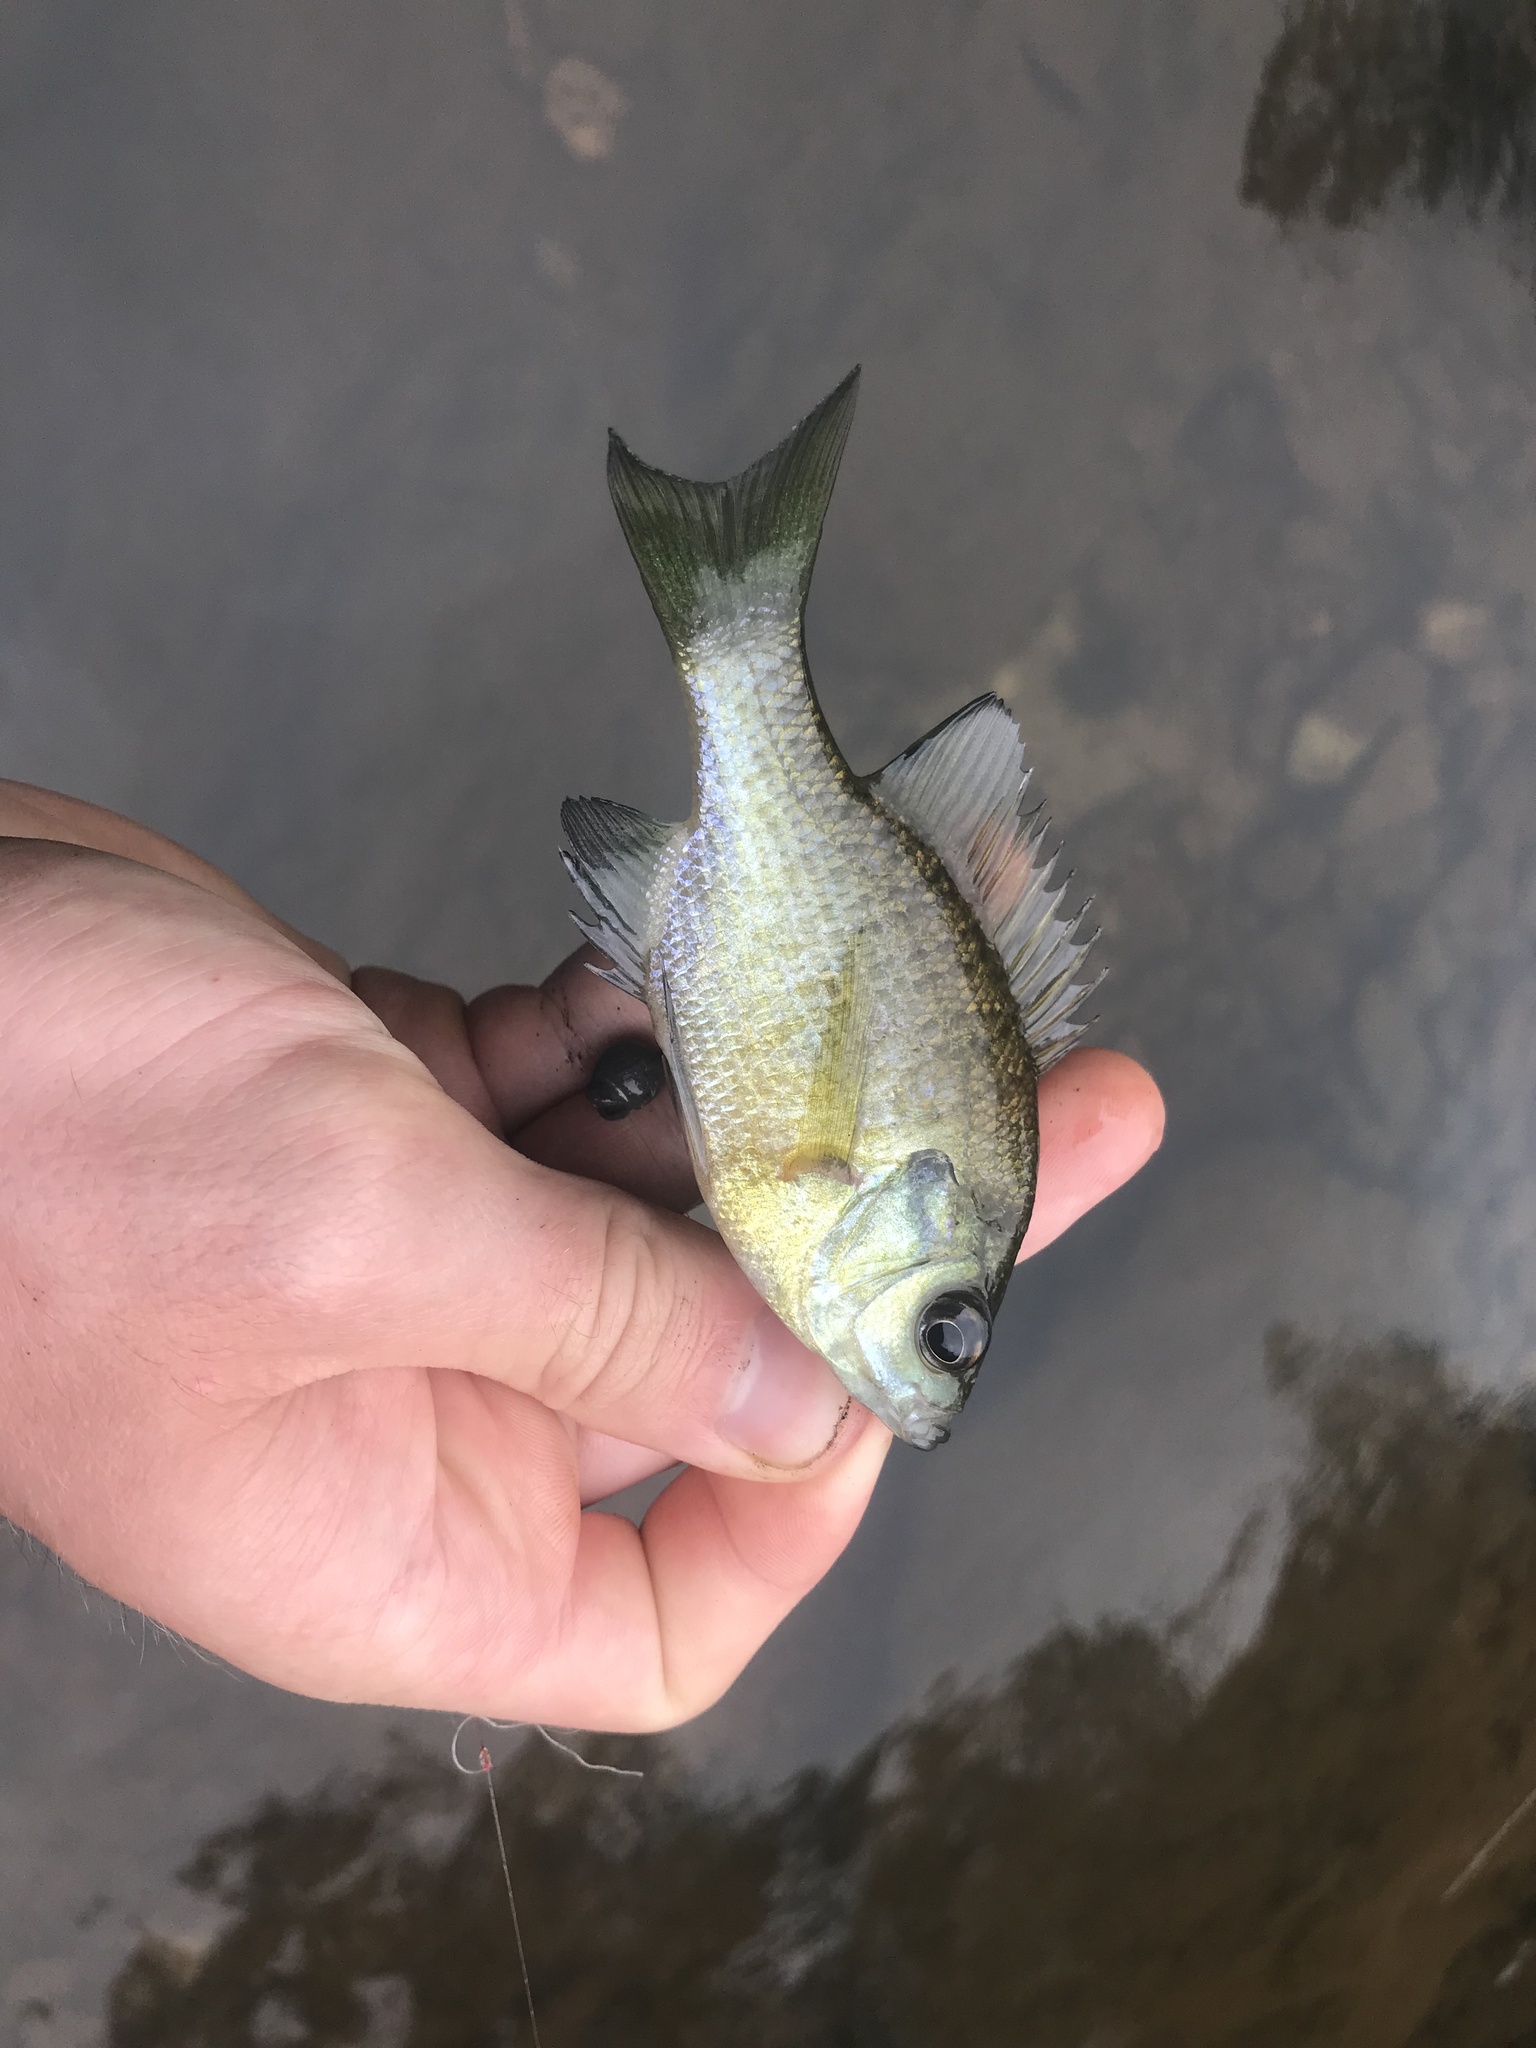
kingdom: Animalia
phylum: Chordata
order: Perciformes
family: Centrarchidae
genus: Lepomis
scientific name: Lepomis macrochirus
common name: Bluegill
